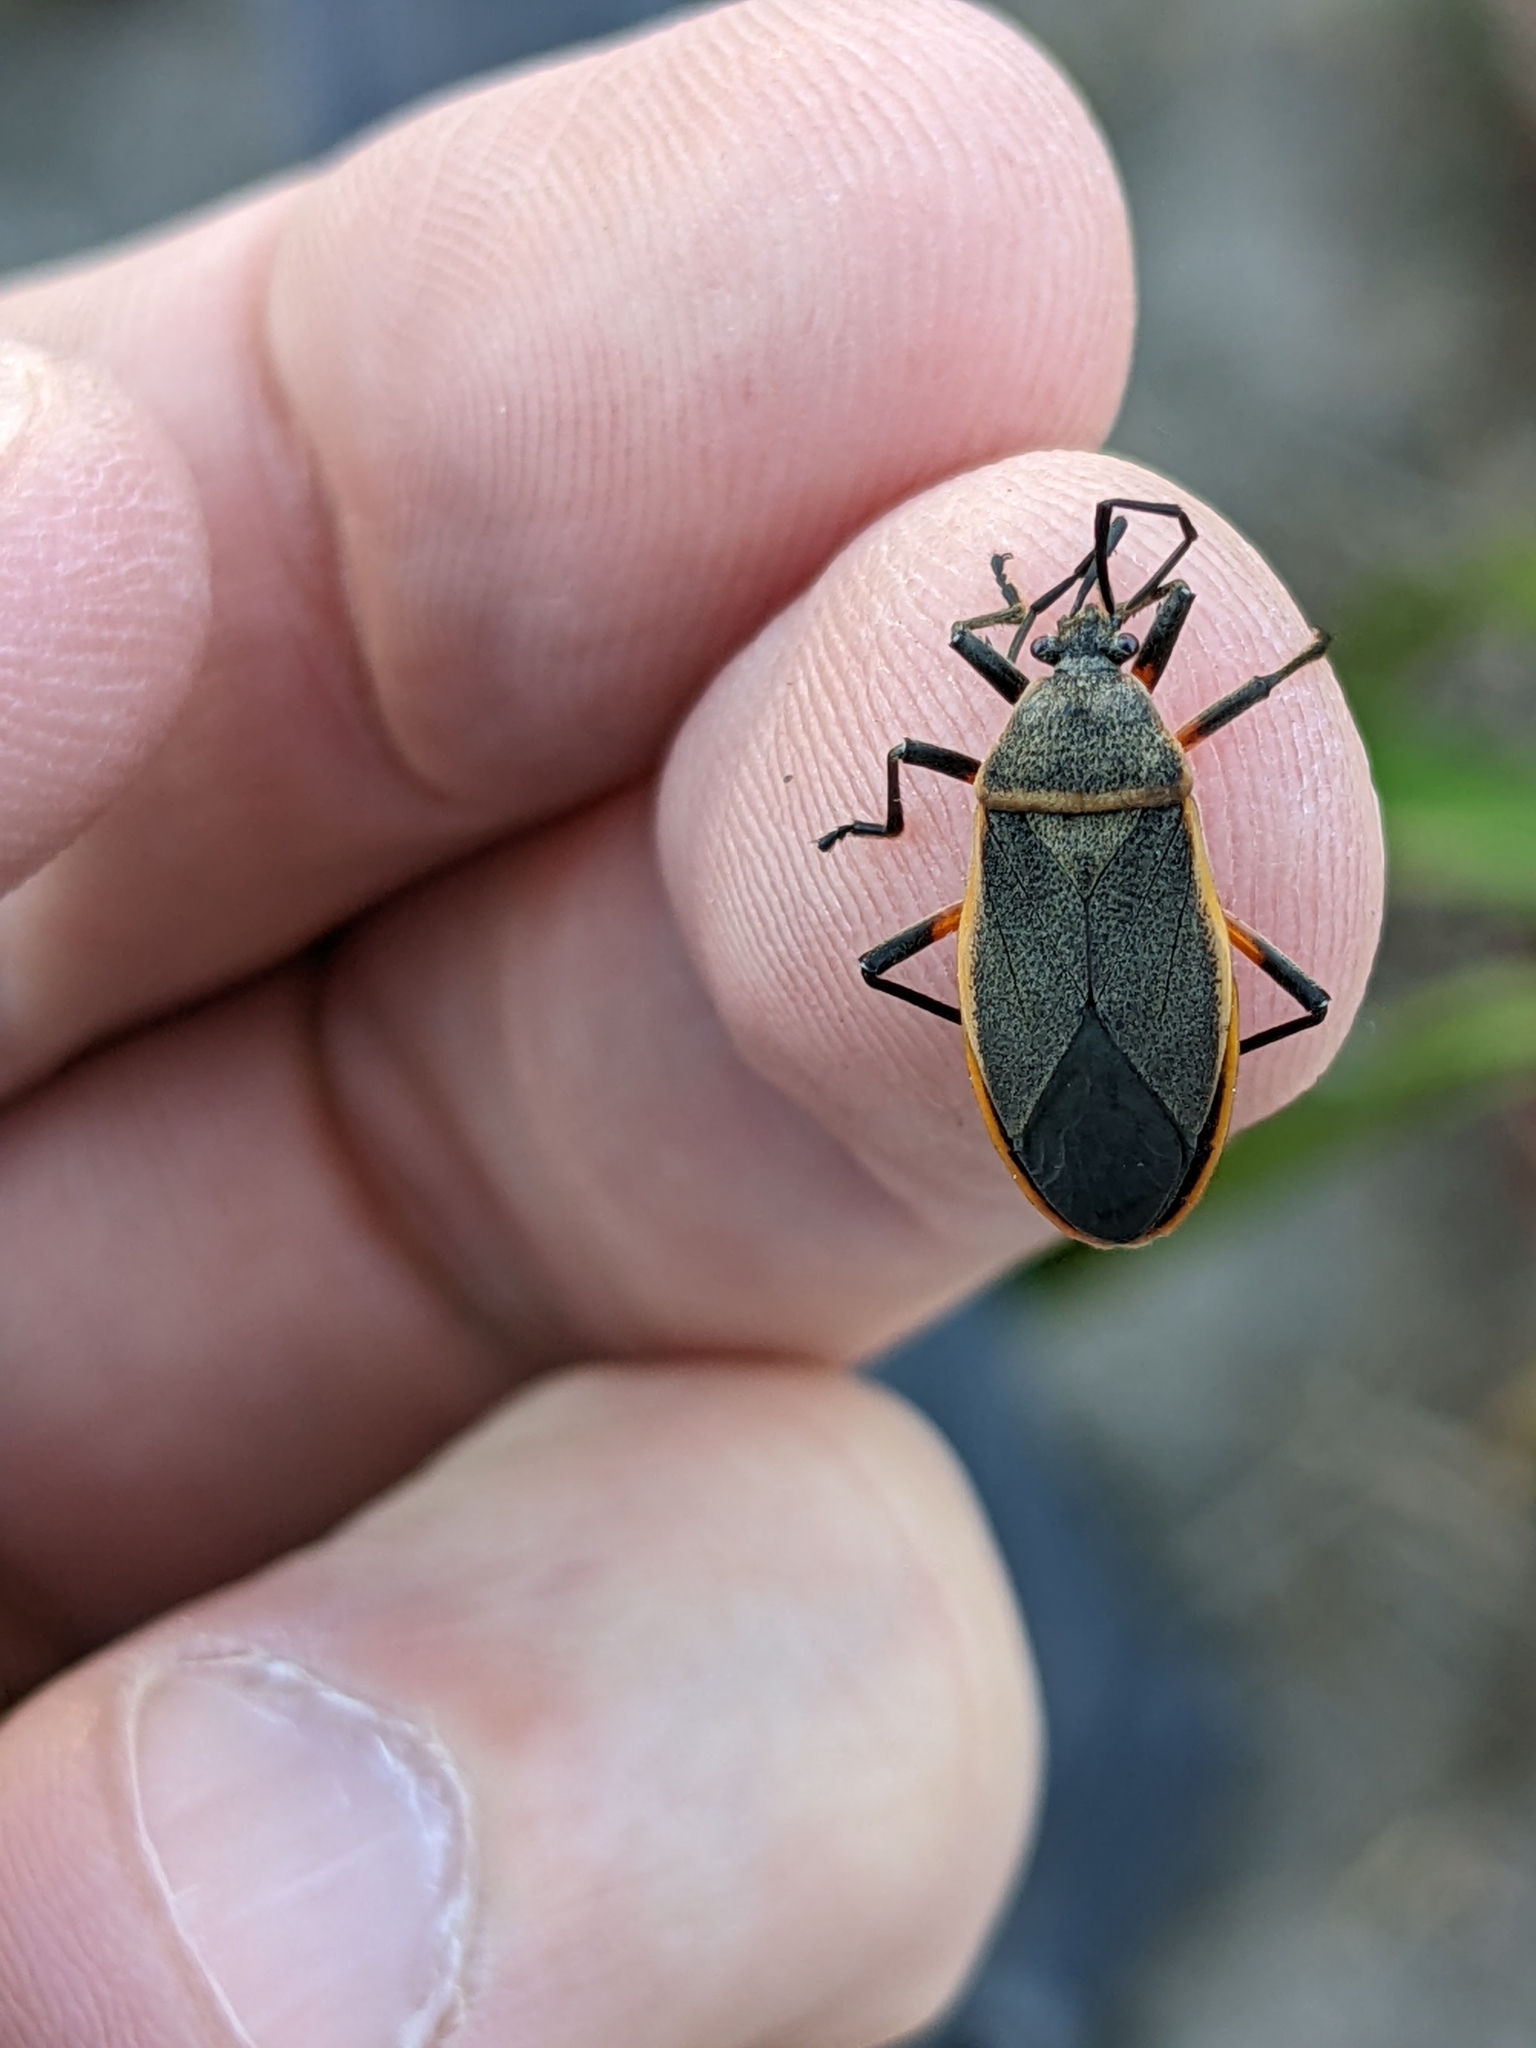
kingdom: Animalia
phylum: Arthropoda
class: Insecta
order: Hemiptera
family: Largidae
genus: Largus
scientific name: Largus succinctus
